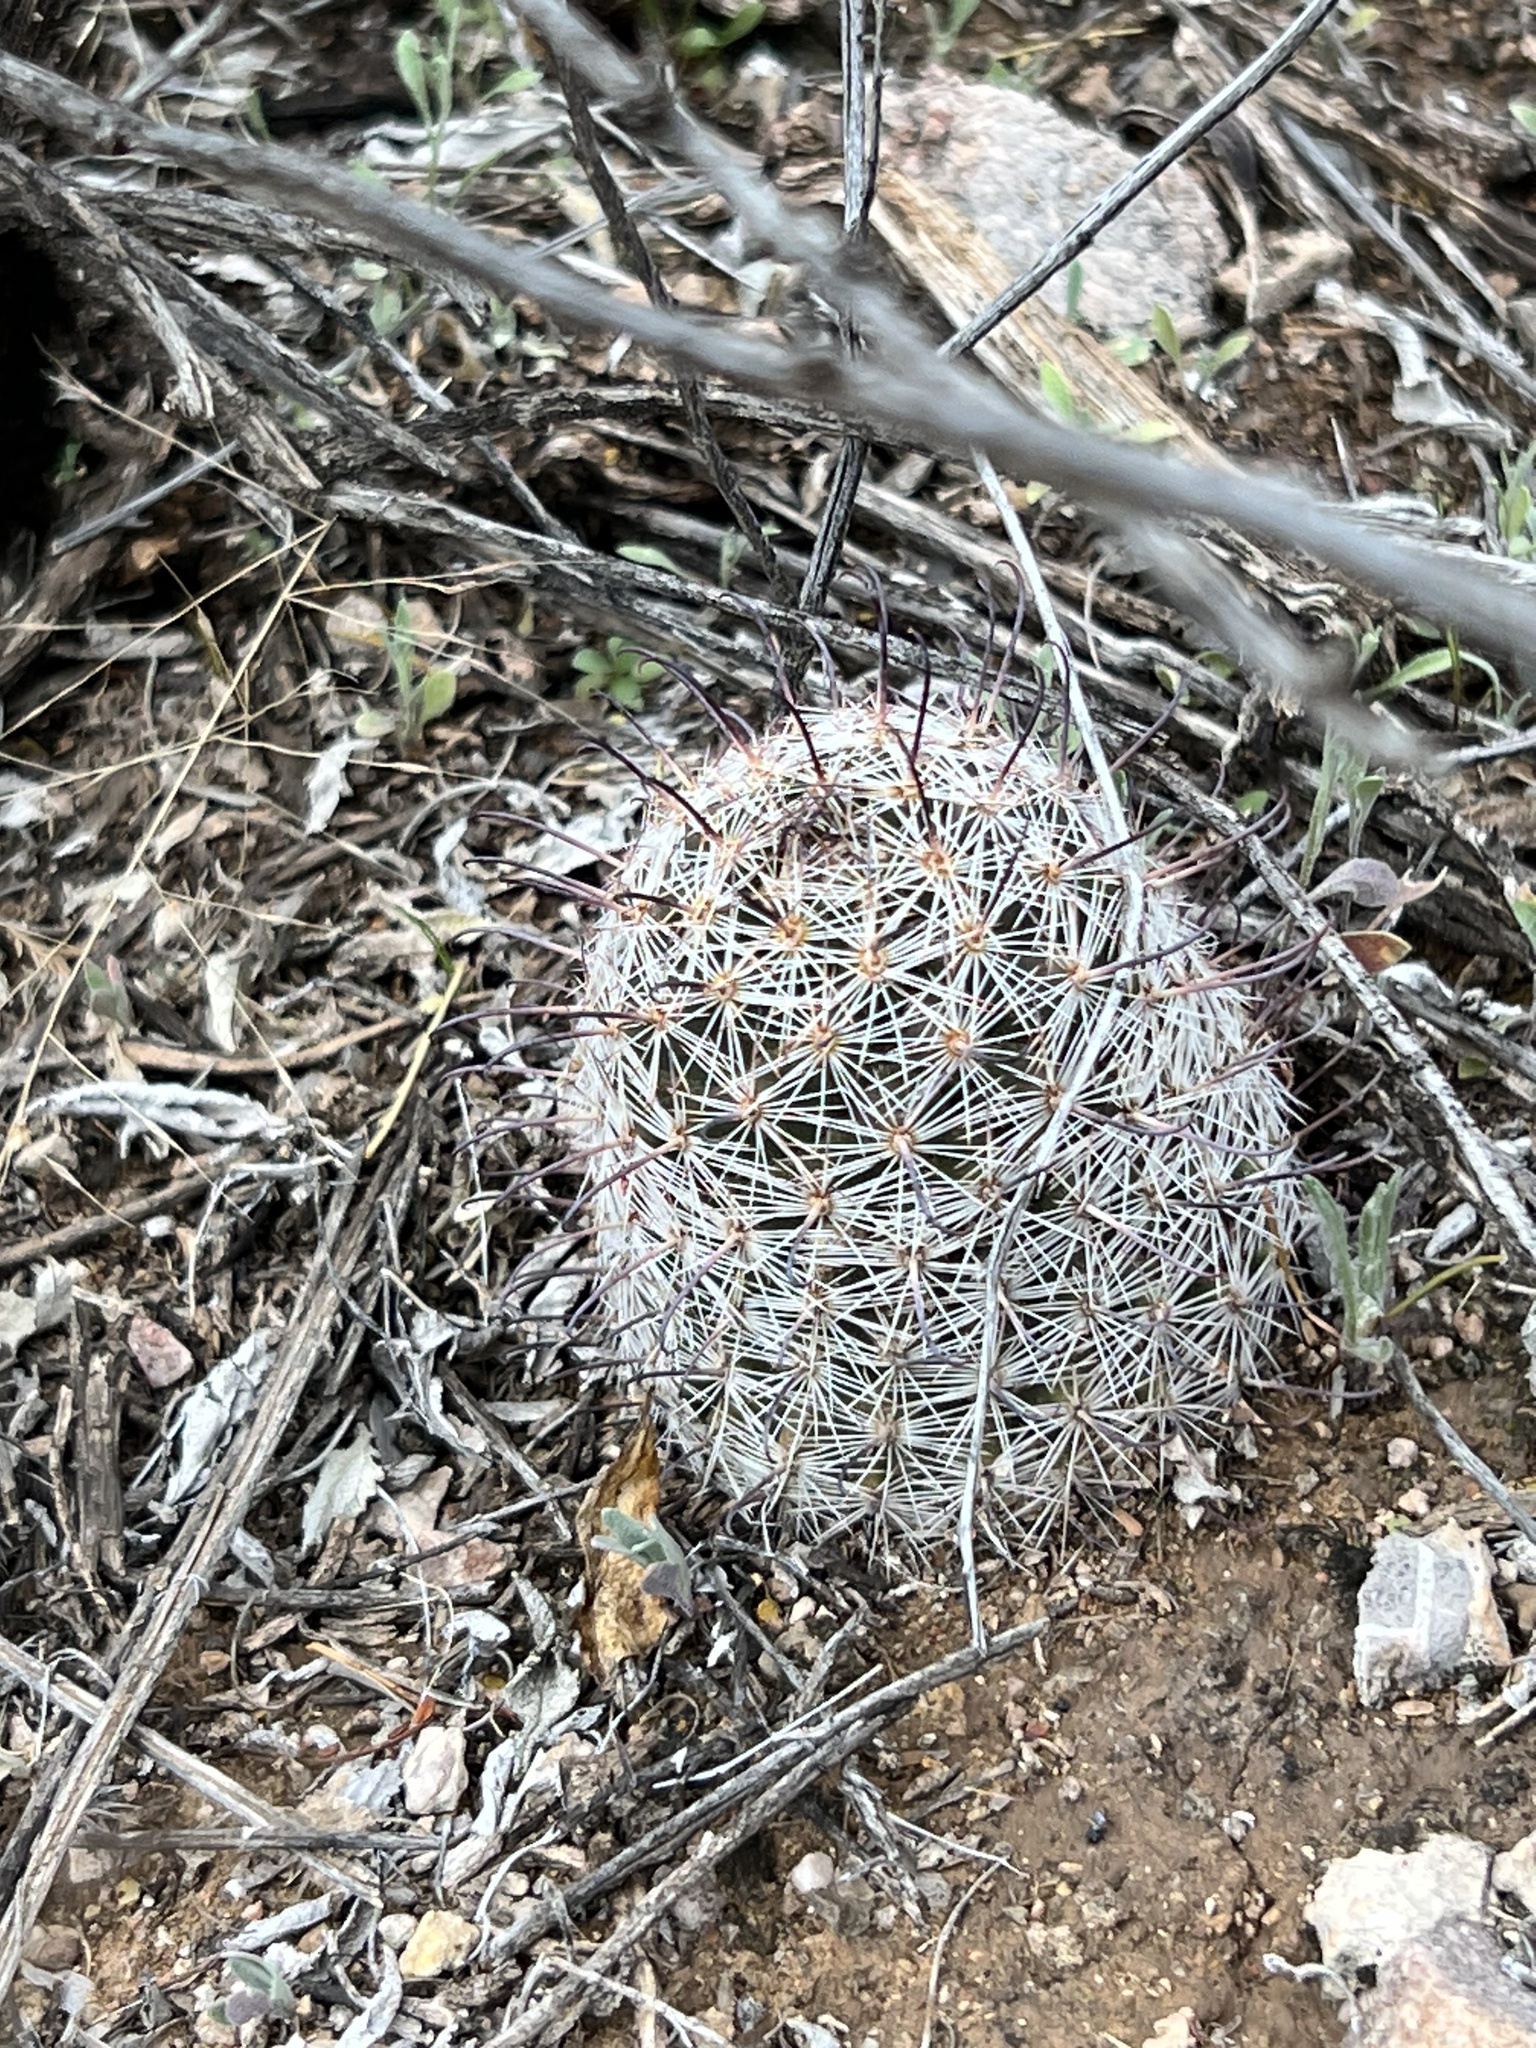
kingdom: Plantae
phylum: Tracheophyta
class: Magnoliopsida
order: Caryophyllales
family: Cactaceae
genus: Cochemiea
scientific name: Cochemiea grahamii
